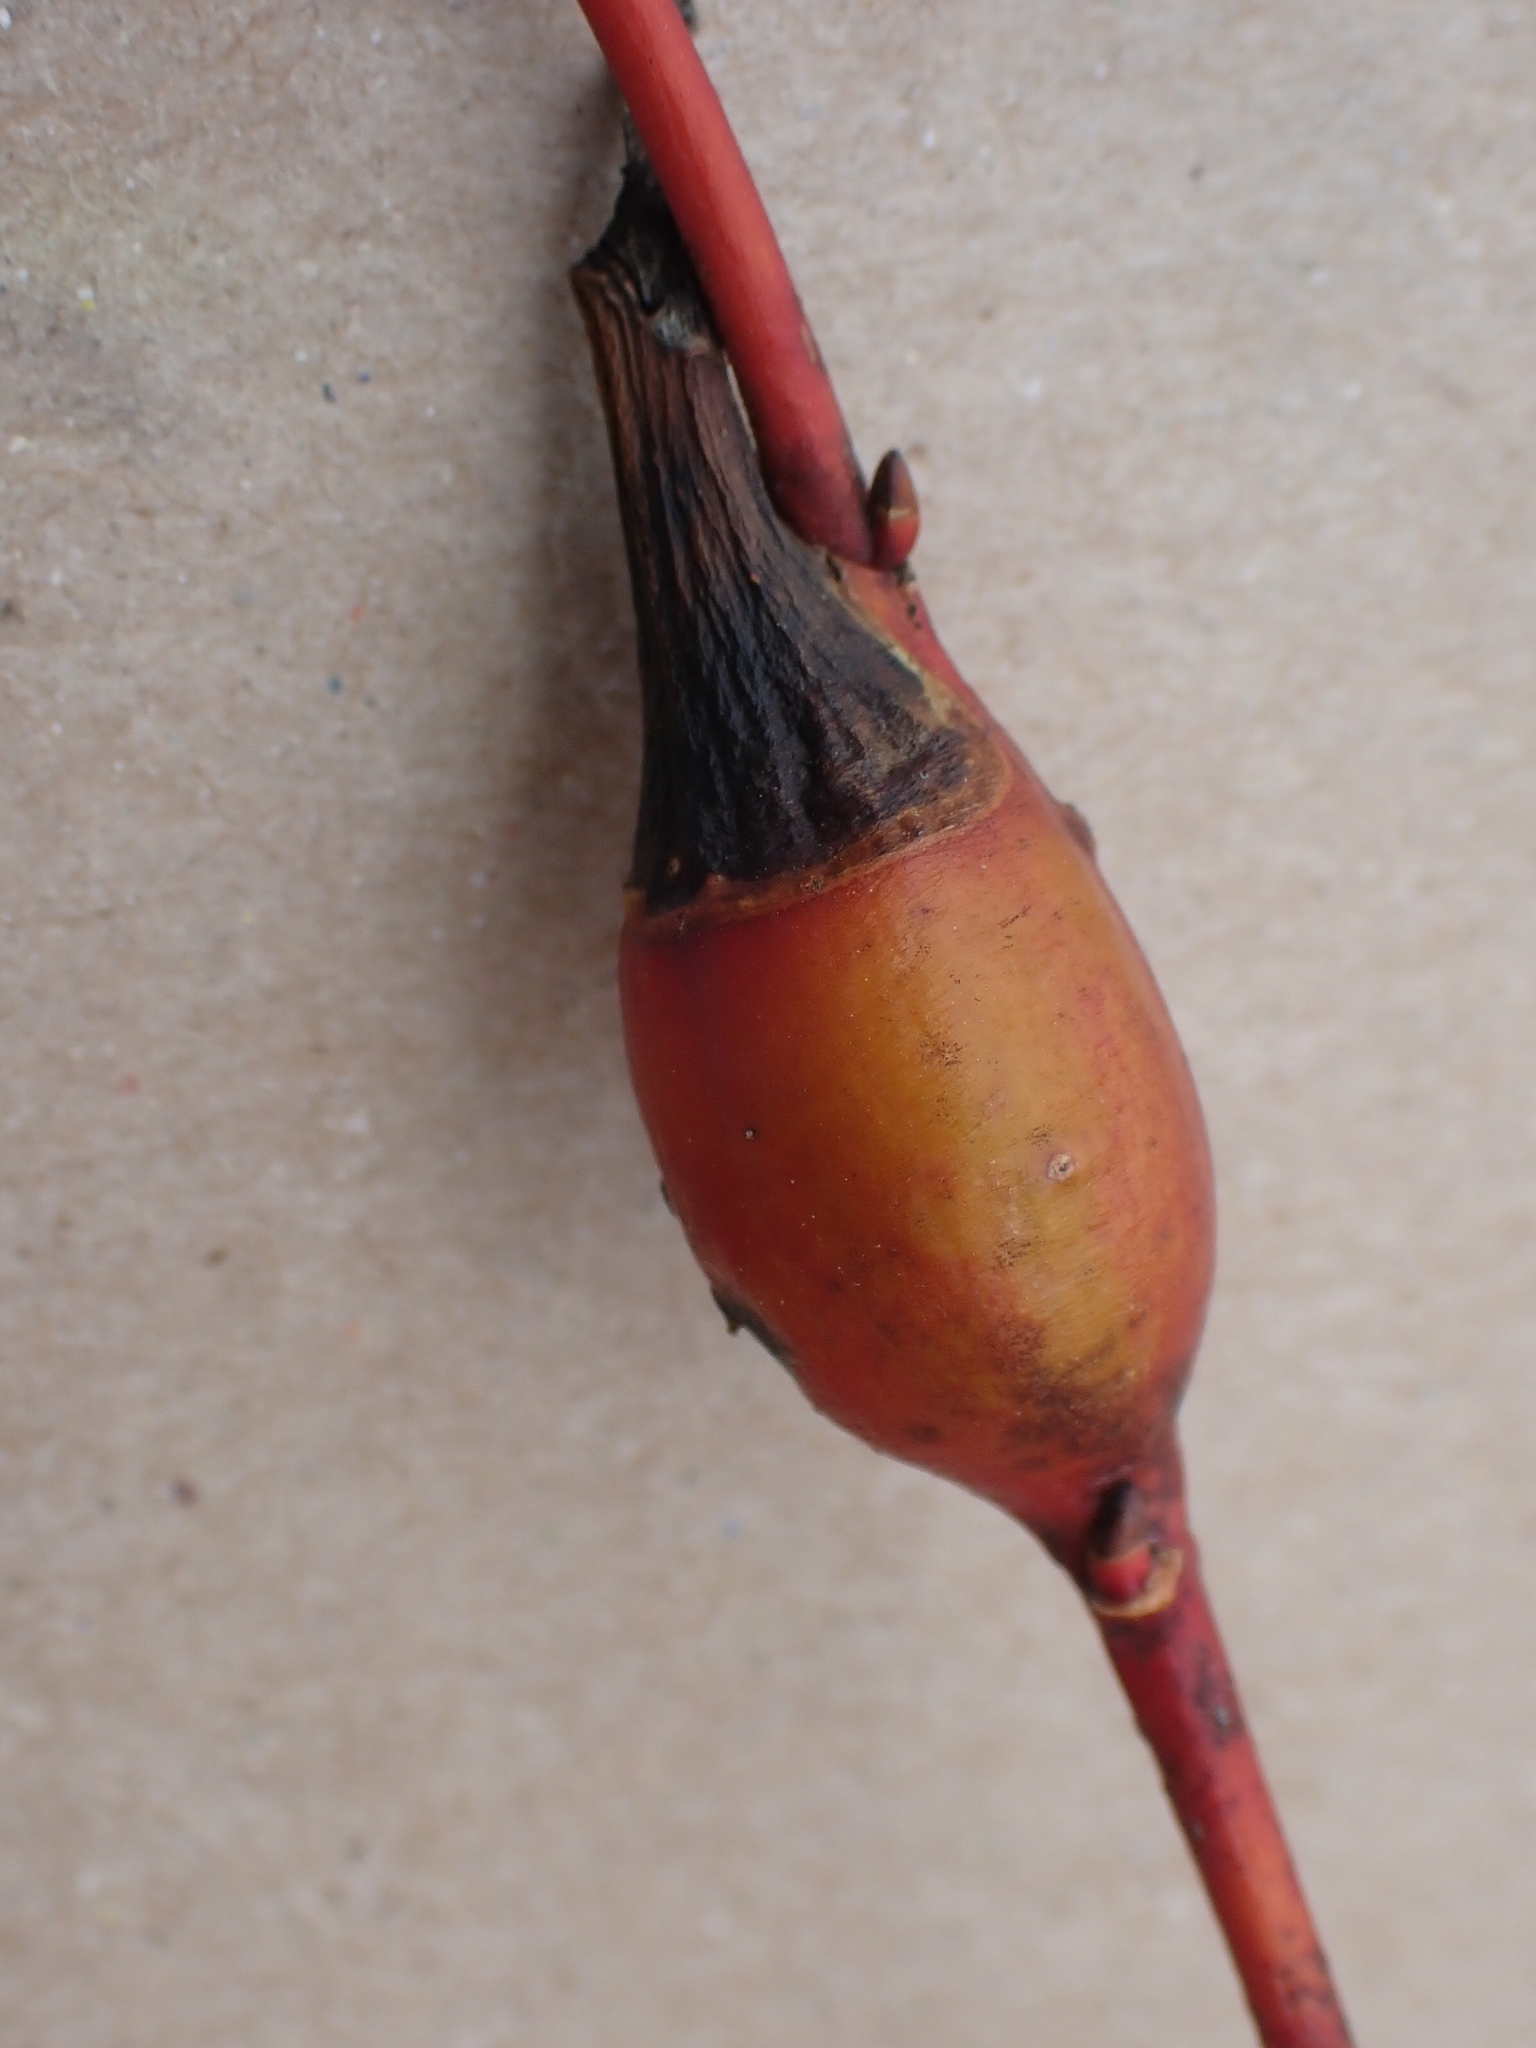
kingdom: Animalia
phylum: Arthropoda
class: Insecta
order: Diptera
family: Cecidomyiidae
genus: Thecodiplosis
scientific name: Thecodiplosis pinirigidae
